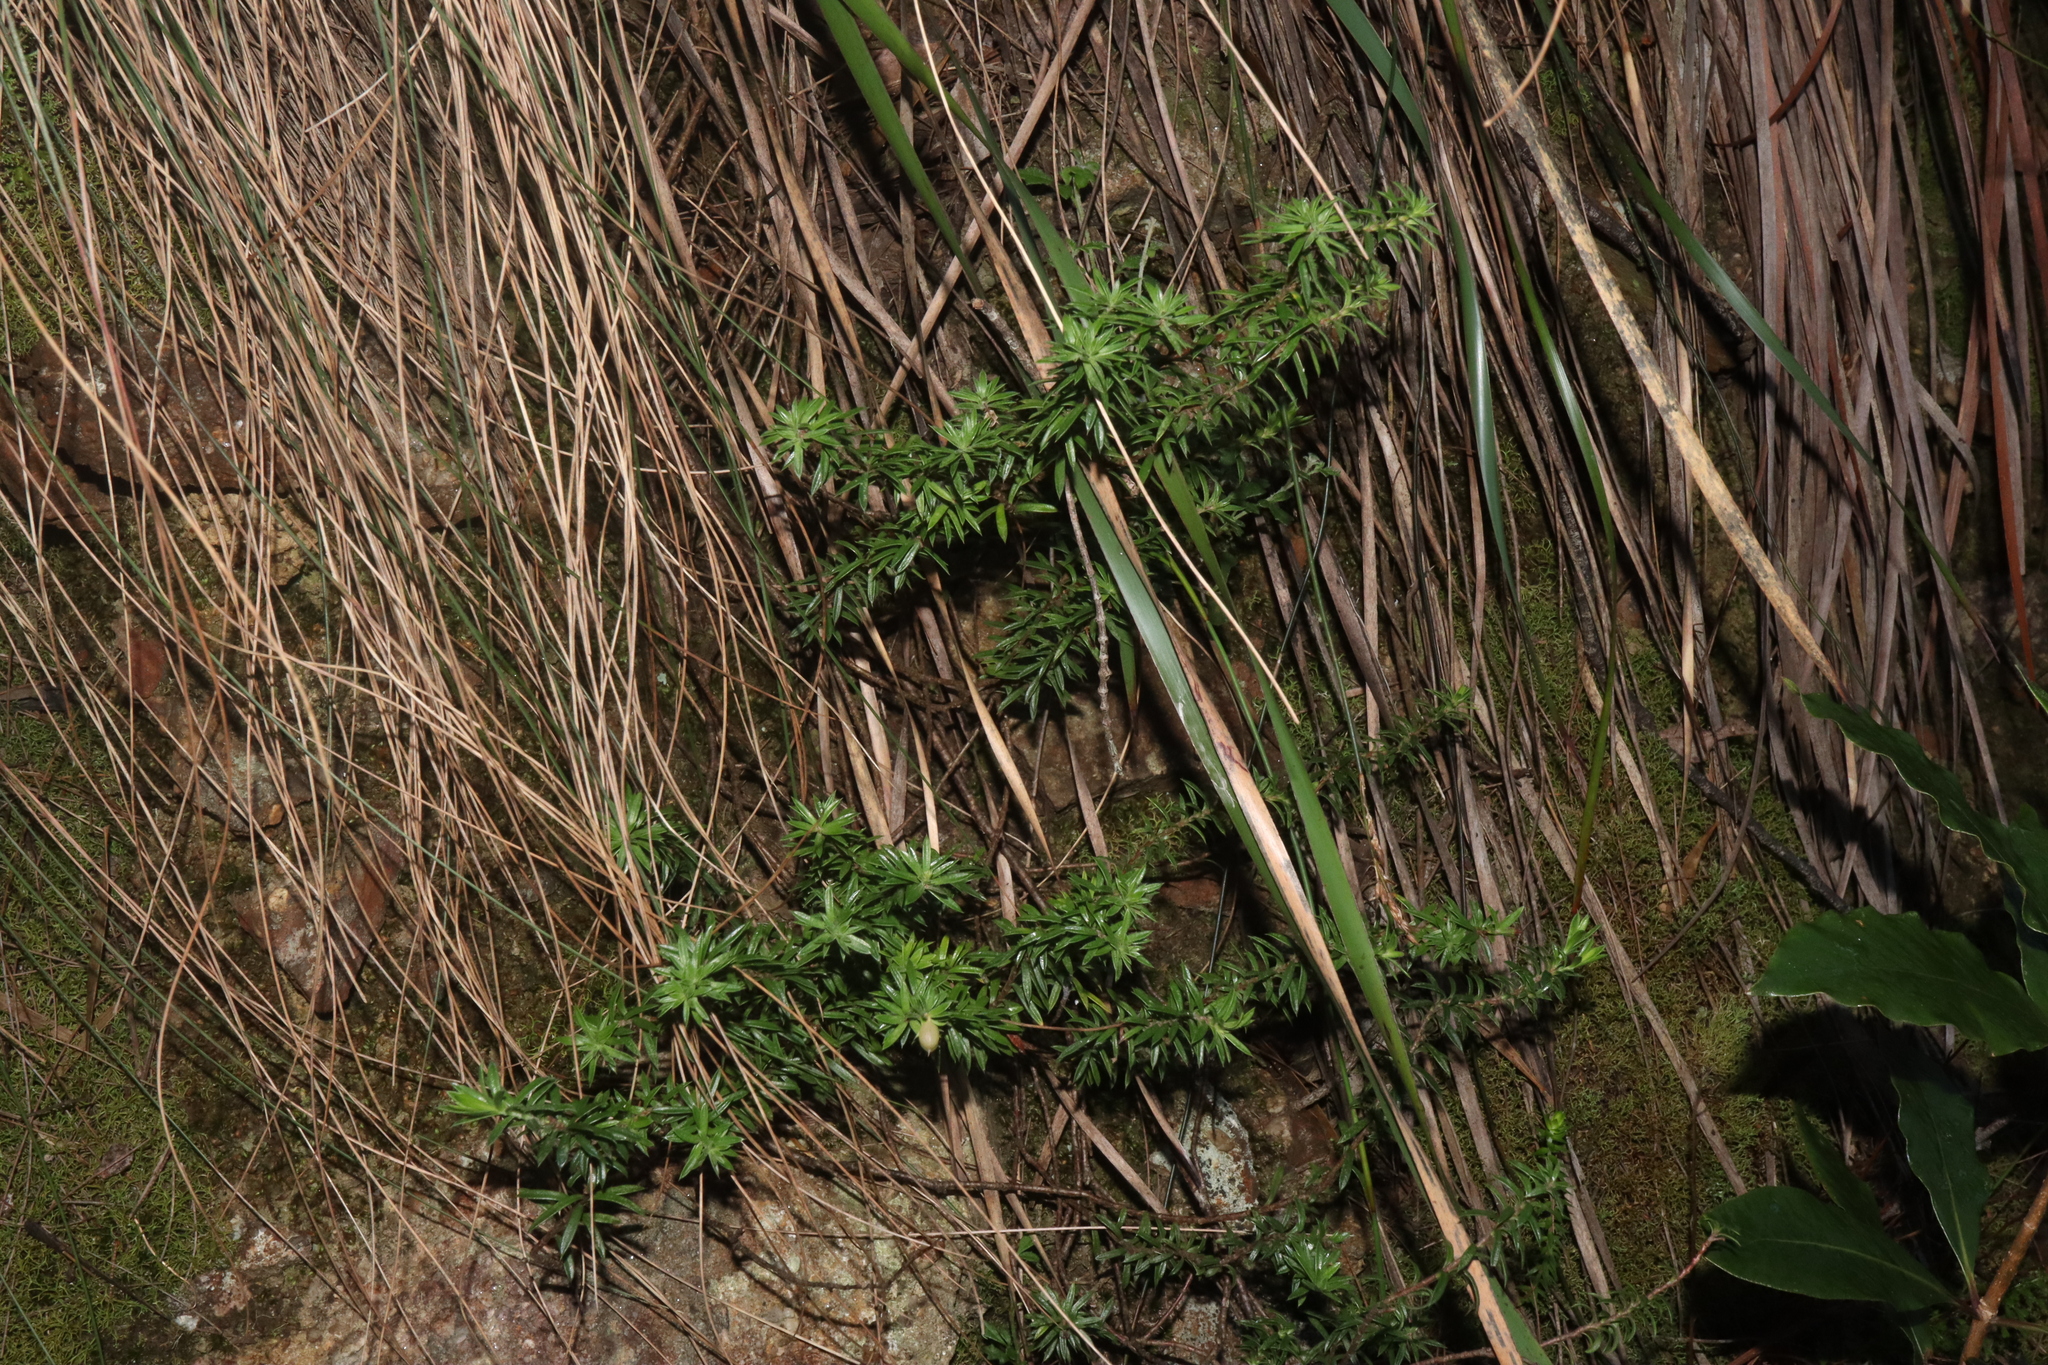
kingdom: Plantae
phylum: Tracheophyta
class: Magnoliopsida
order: Apiales
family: Pittosporaceae
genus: Rhytidosporum
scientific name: Rhytidosporum procumbens
